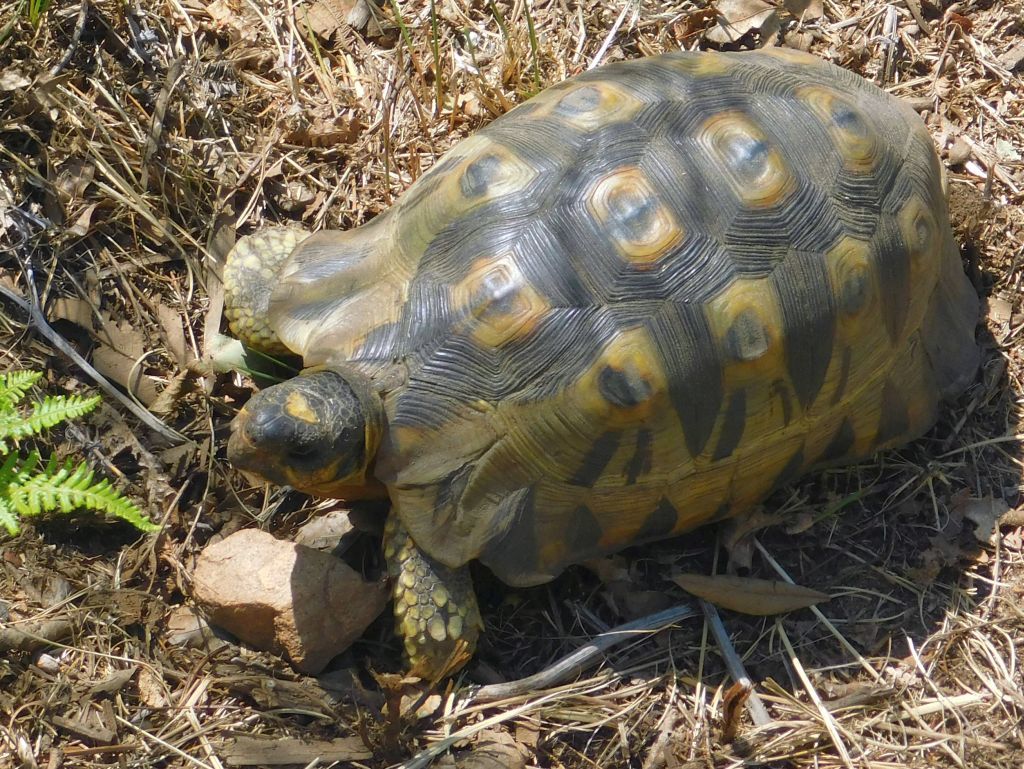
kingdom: Animalia
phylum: Chordata
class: Testudines
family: Testudinidae
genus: Chersina
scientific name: Chersina angulata
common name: South african bowsprit tortoise
